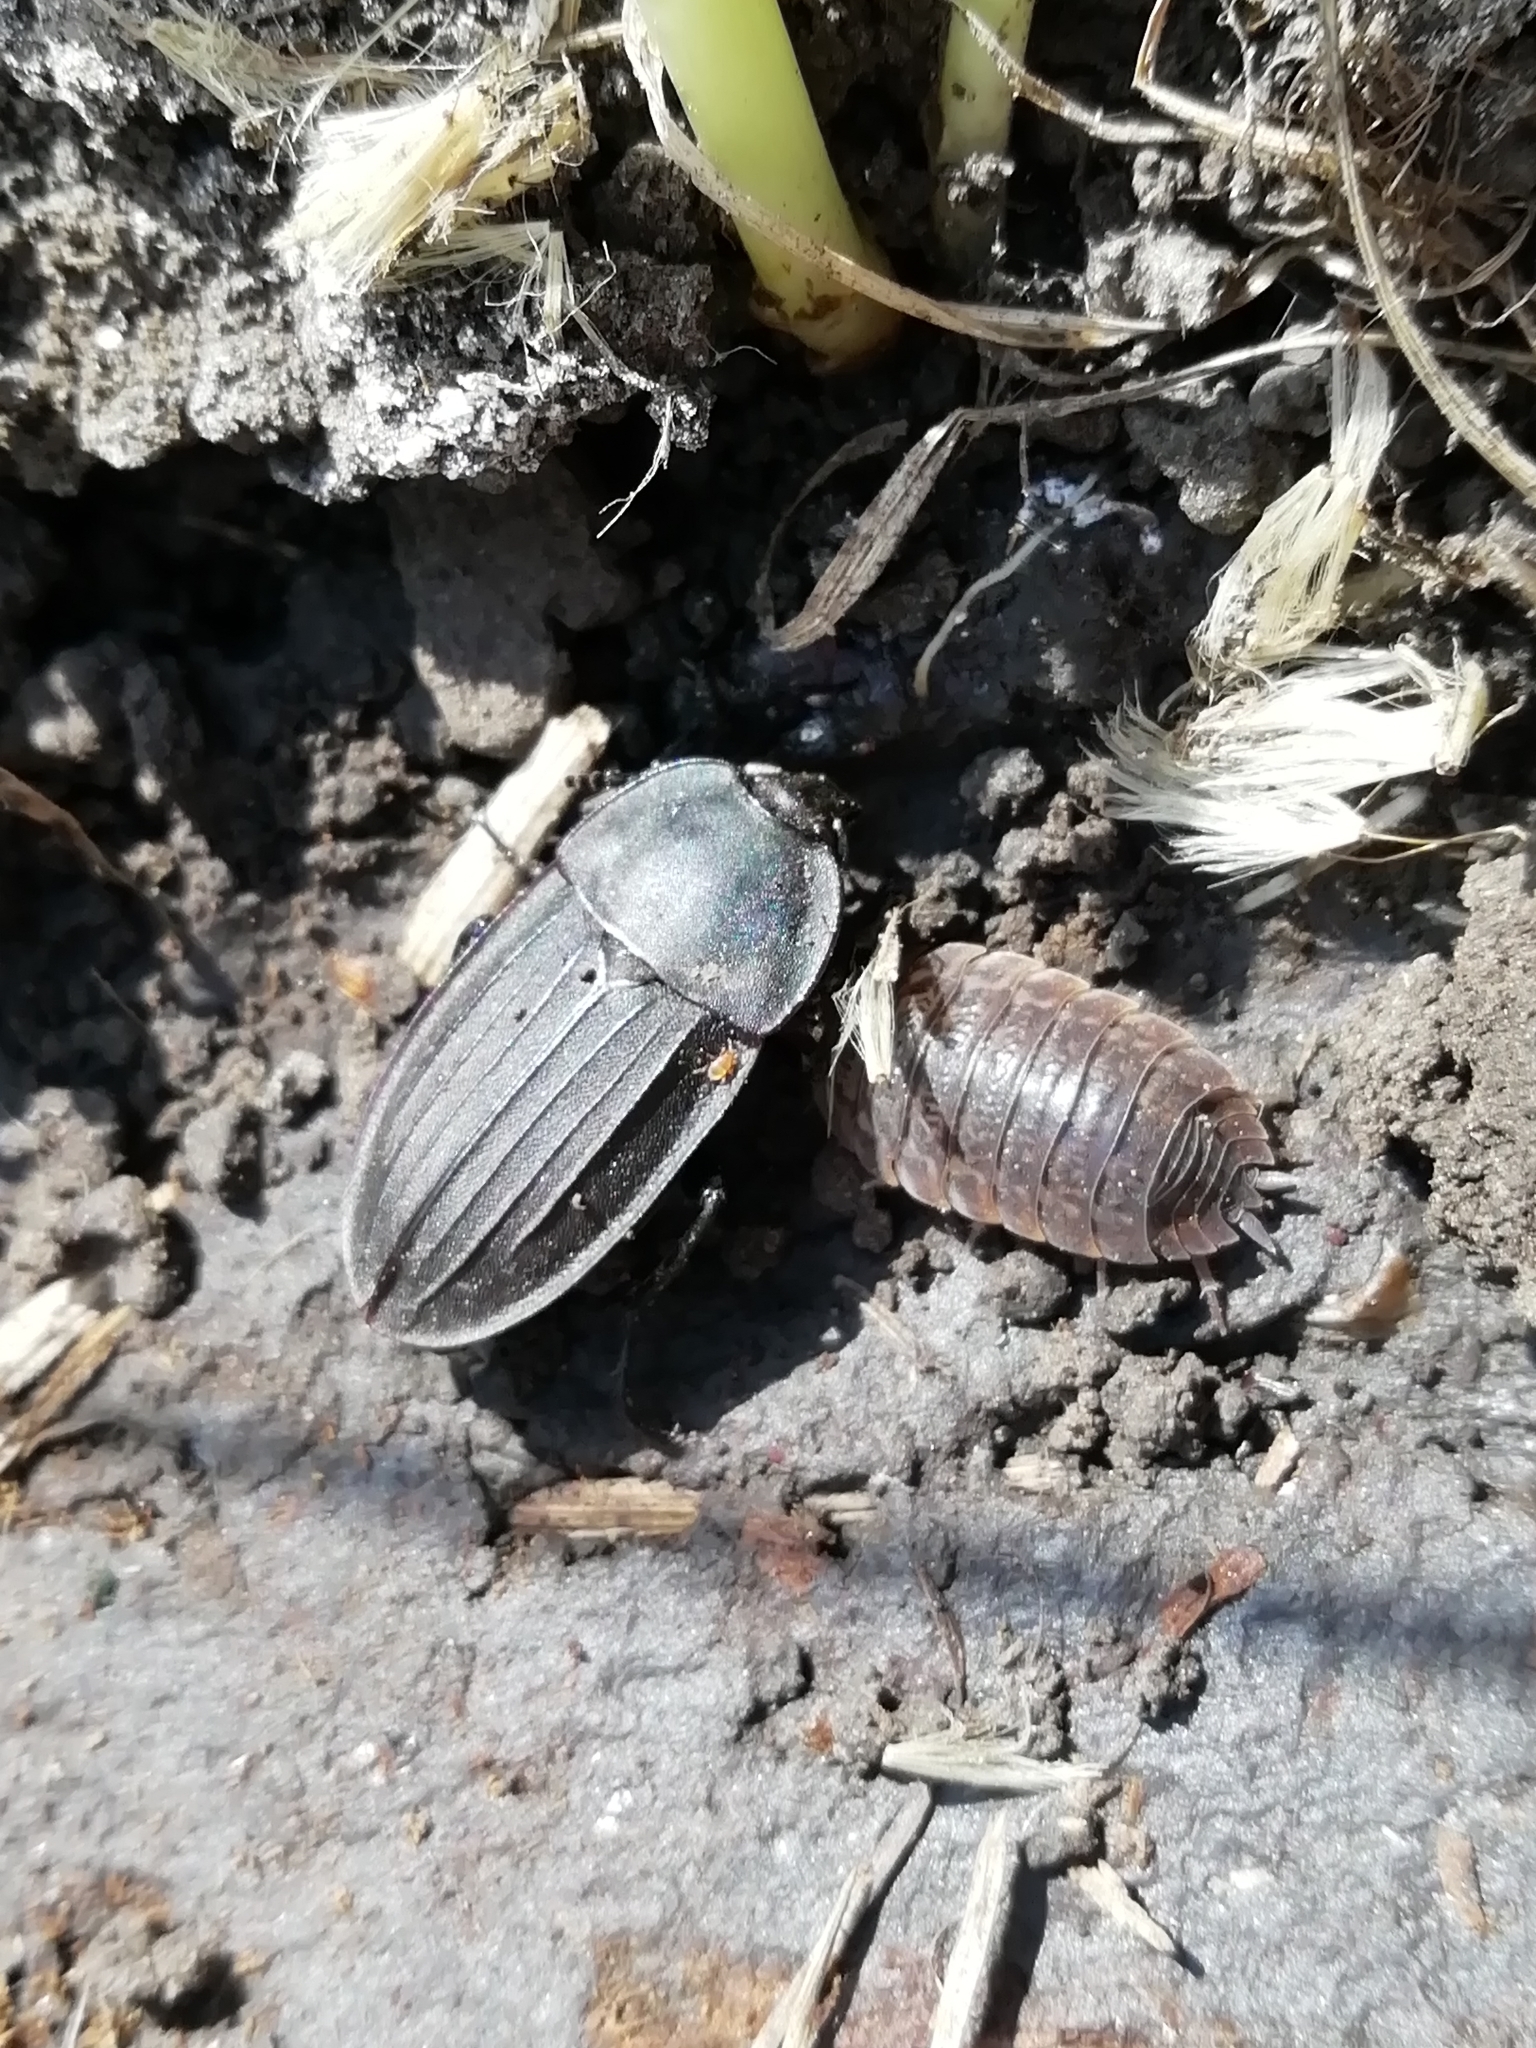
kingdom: Animalia
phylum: Arthropoda
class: Malacostraca
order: Isopoda
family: Trachelipodidae
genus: Trachelipus
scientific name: Trachelipus rathkii
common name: Isopod
